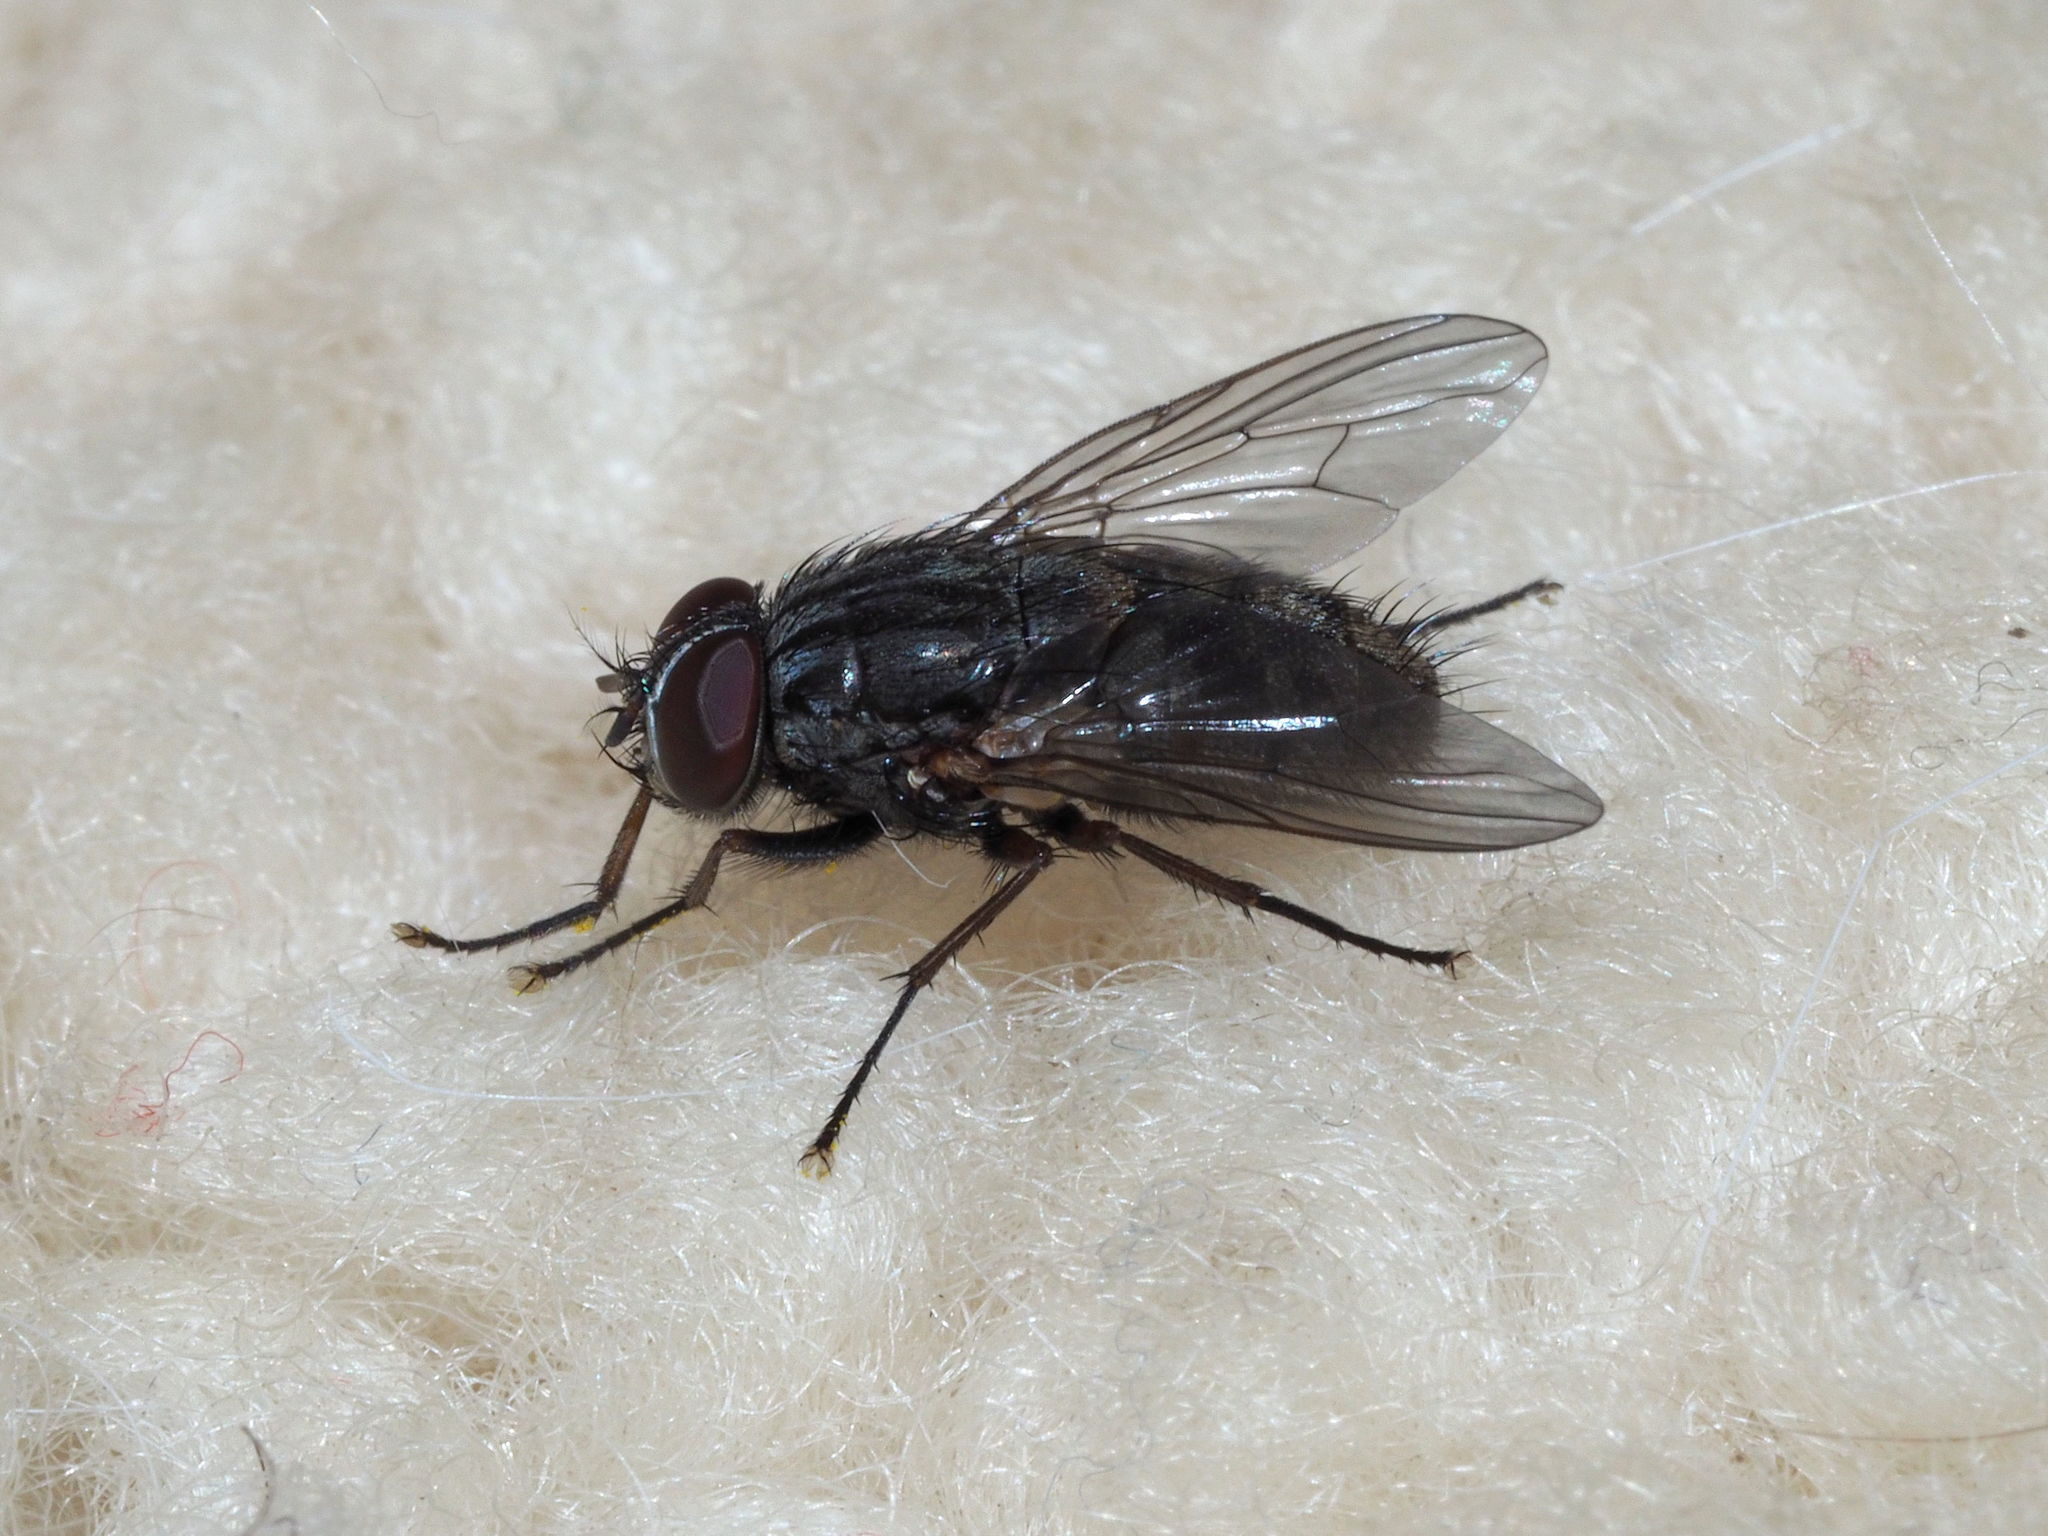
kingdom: Animalia
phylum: Arthropoda
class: Insecta
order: Diptera
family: Muscidae
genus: Muscina
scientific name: Muscina stabulans
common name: False stable fly
